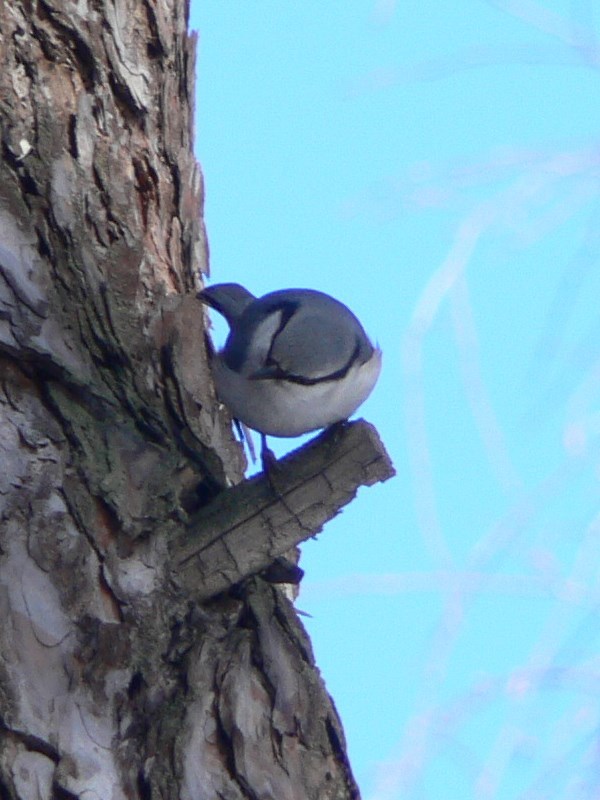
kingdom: Animalia
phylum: Chordata
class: Aves
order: Passeriformes
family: Sittidae
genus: Sitta
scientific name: Sitta europaea
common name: Eurasian nuthatch
